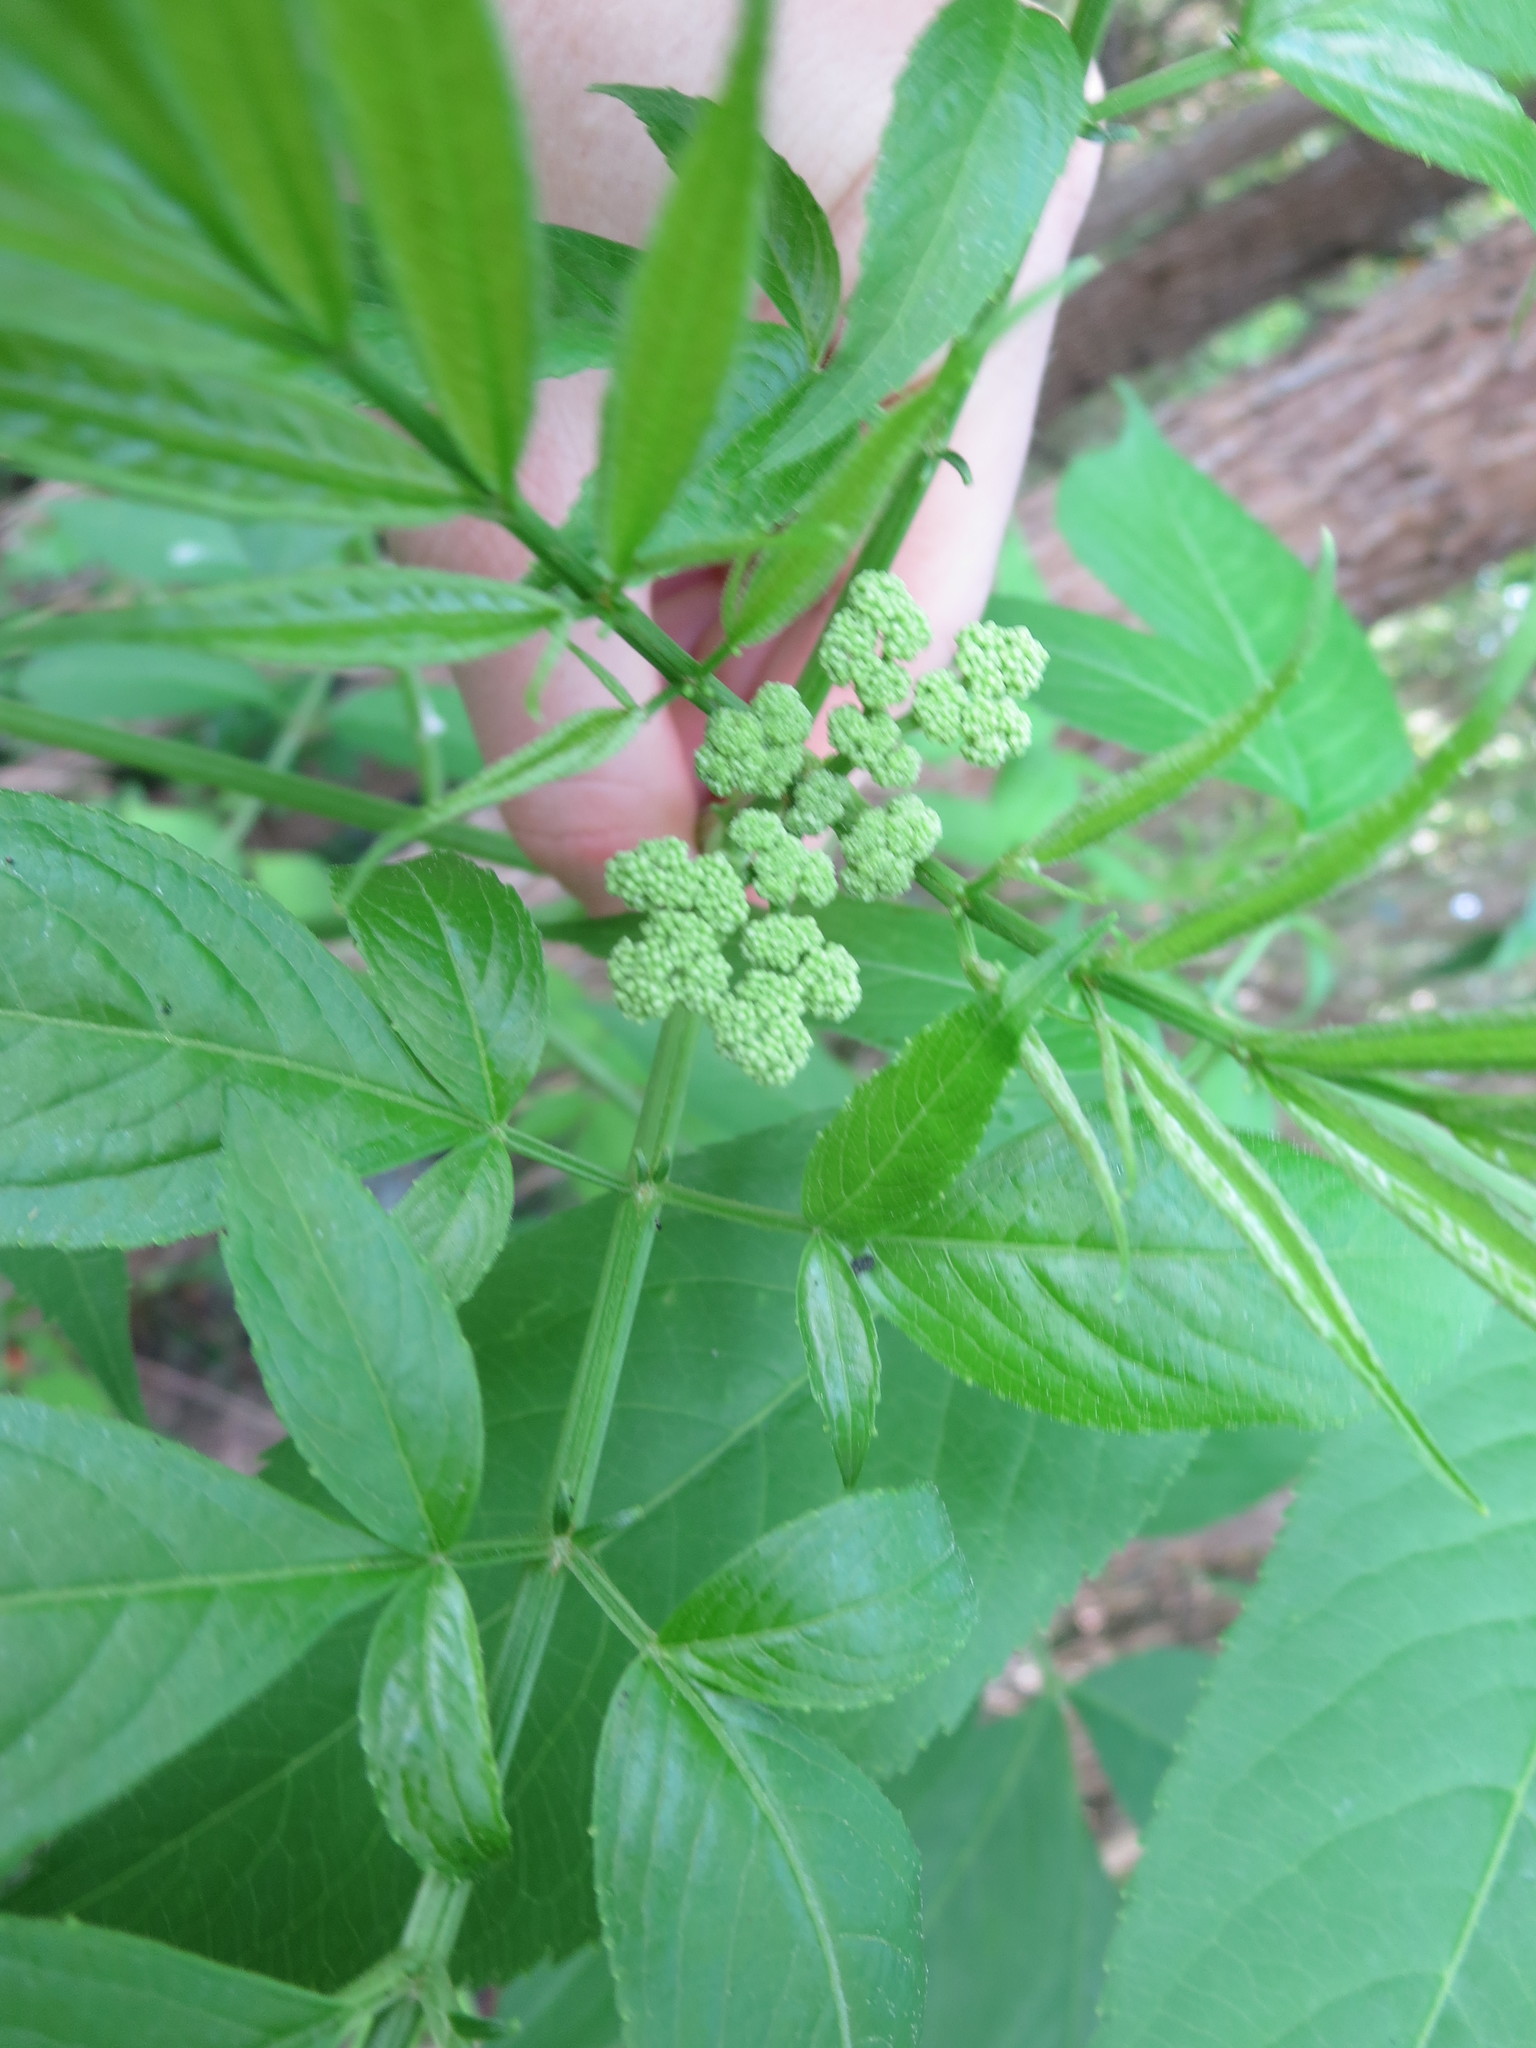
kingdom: Plantae
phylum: Tracheophyta
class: Magnoliopsida
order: Dipsacales
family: Viburnaceae
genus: Sambucus
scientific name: Sambucus canadensis
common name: American elder
